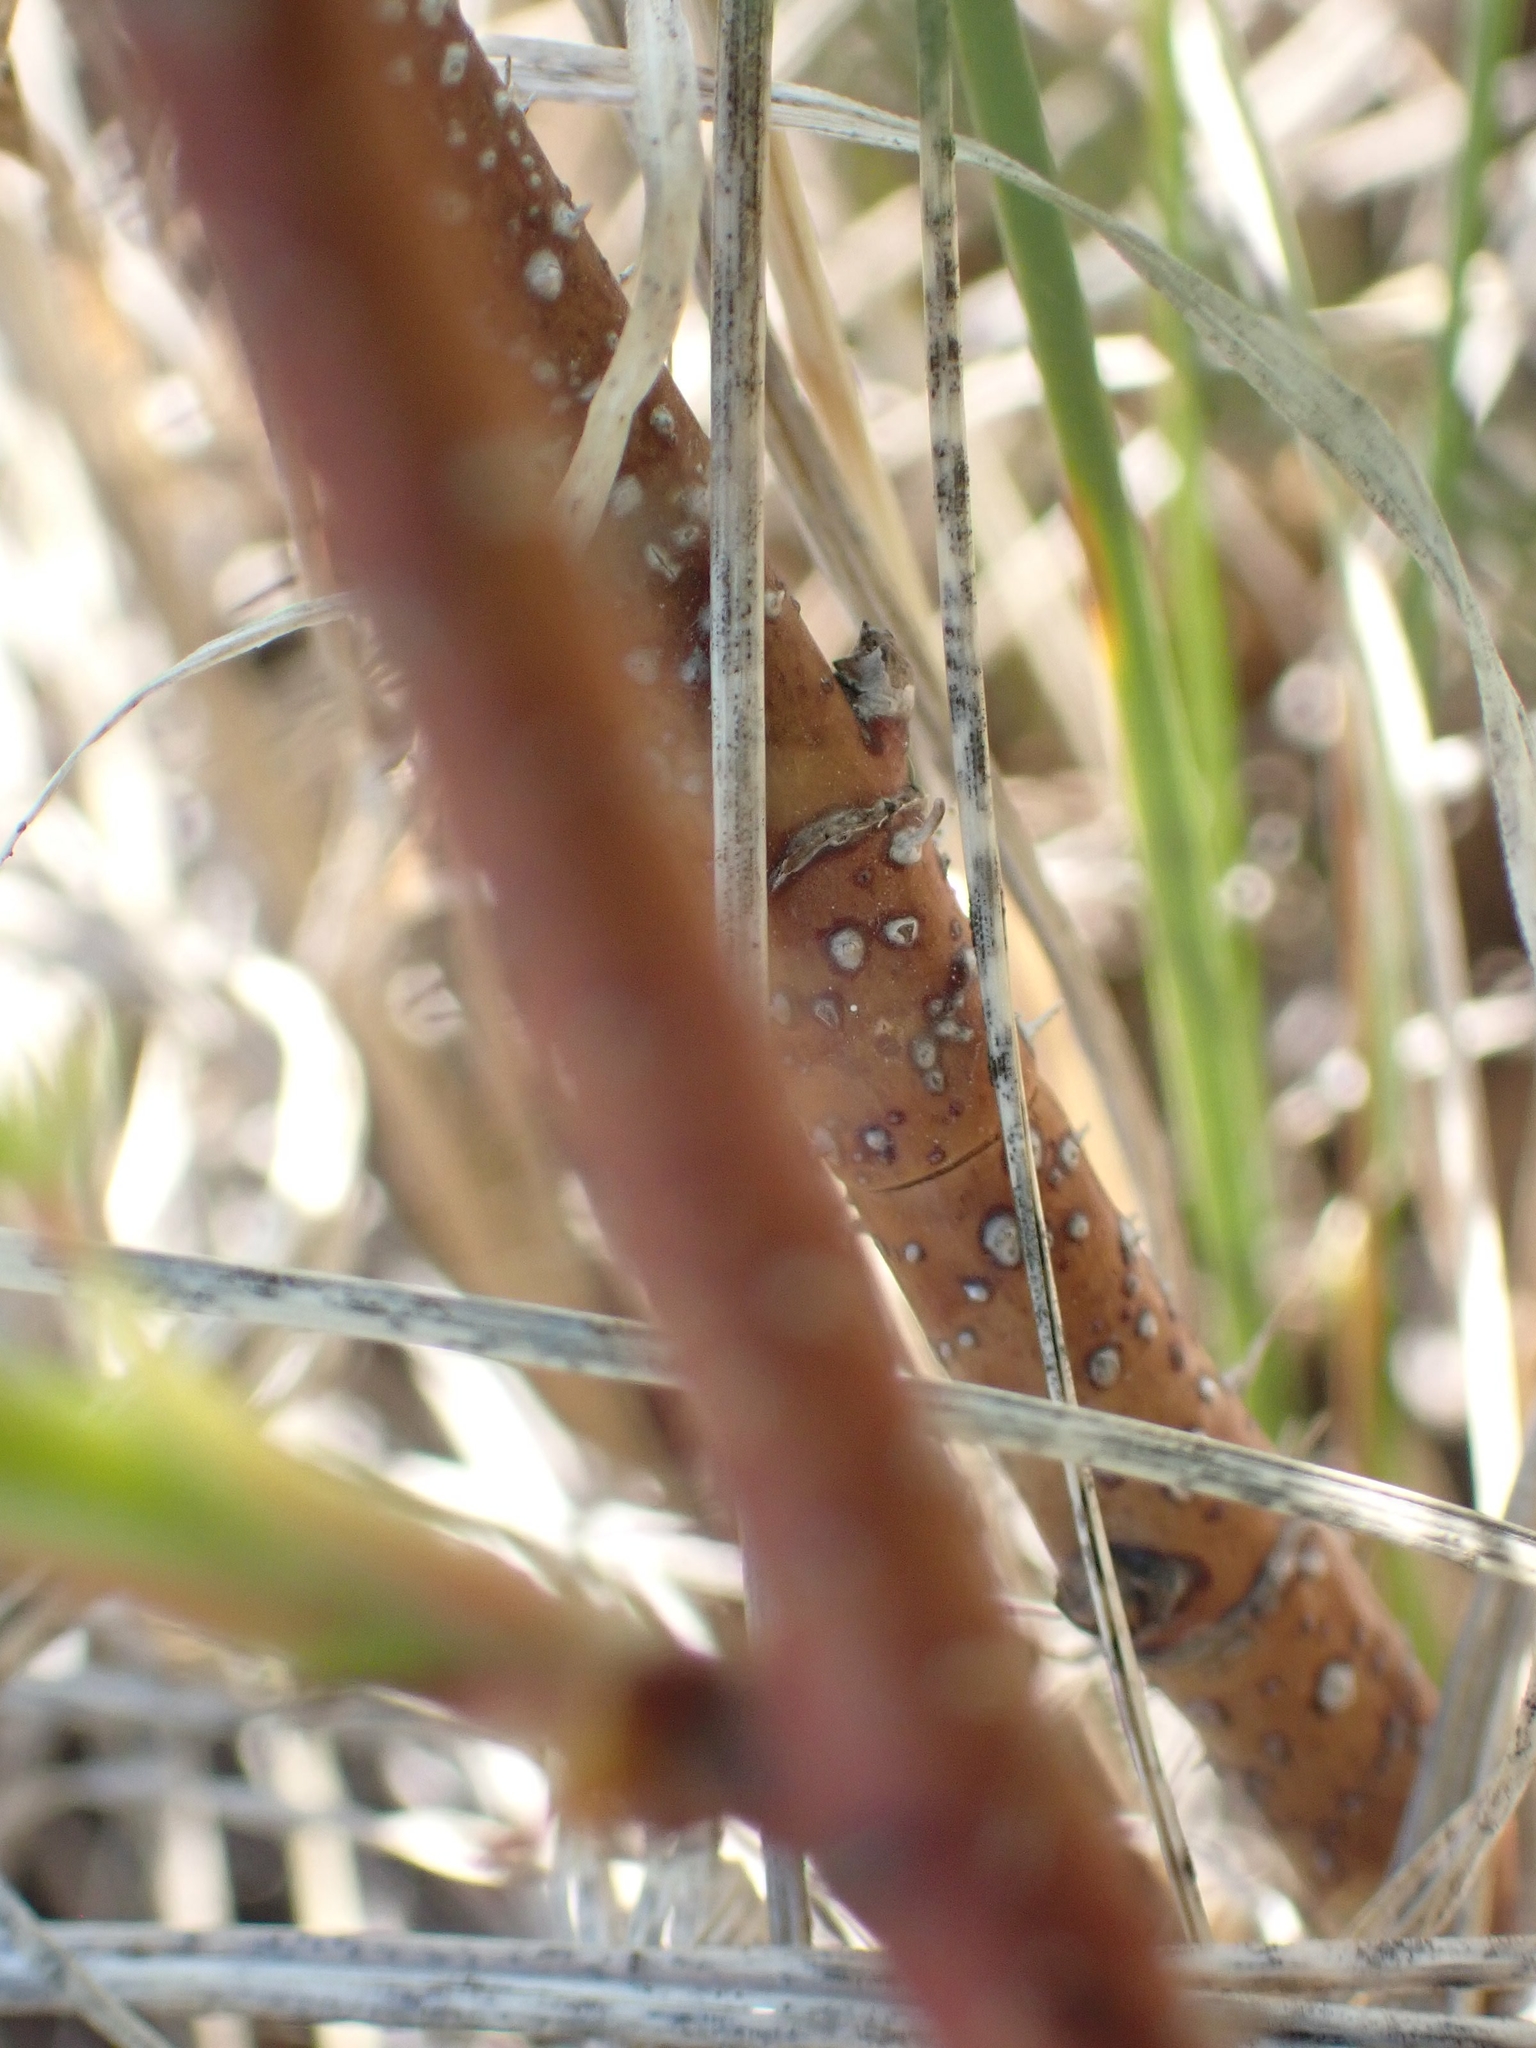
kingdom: Plantae
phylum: Tracheophyta
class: Magnoliopsida
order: Rosales
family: Rosaceae
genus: Rosa
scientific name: Rosa woodsii
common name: Woods's rose
